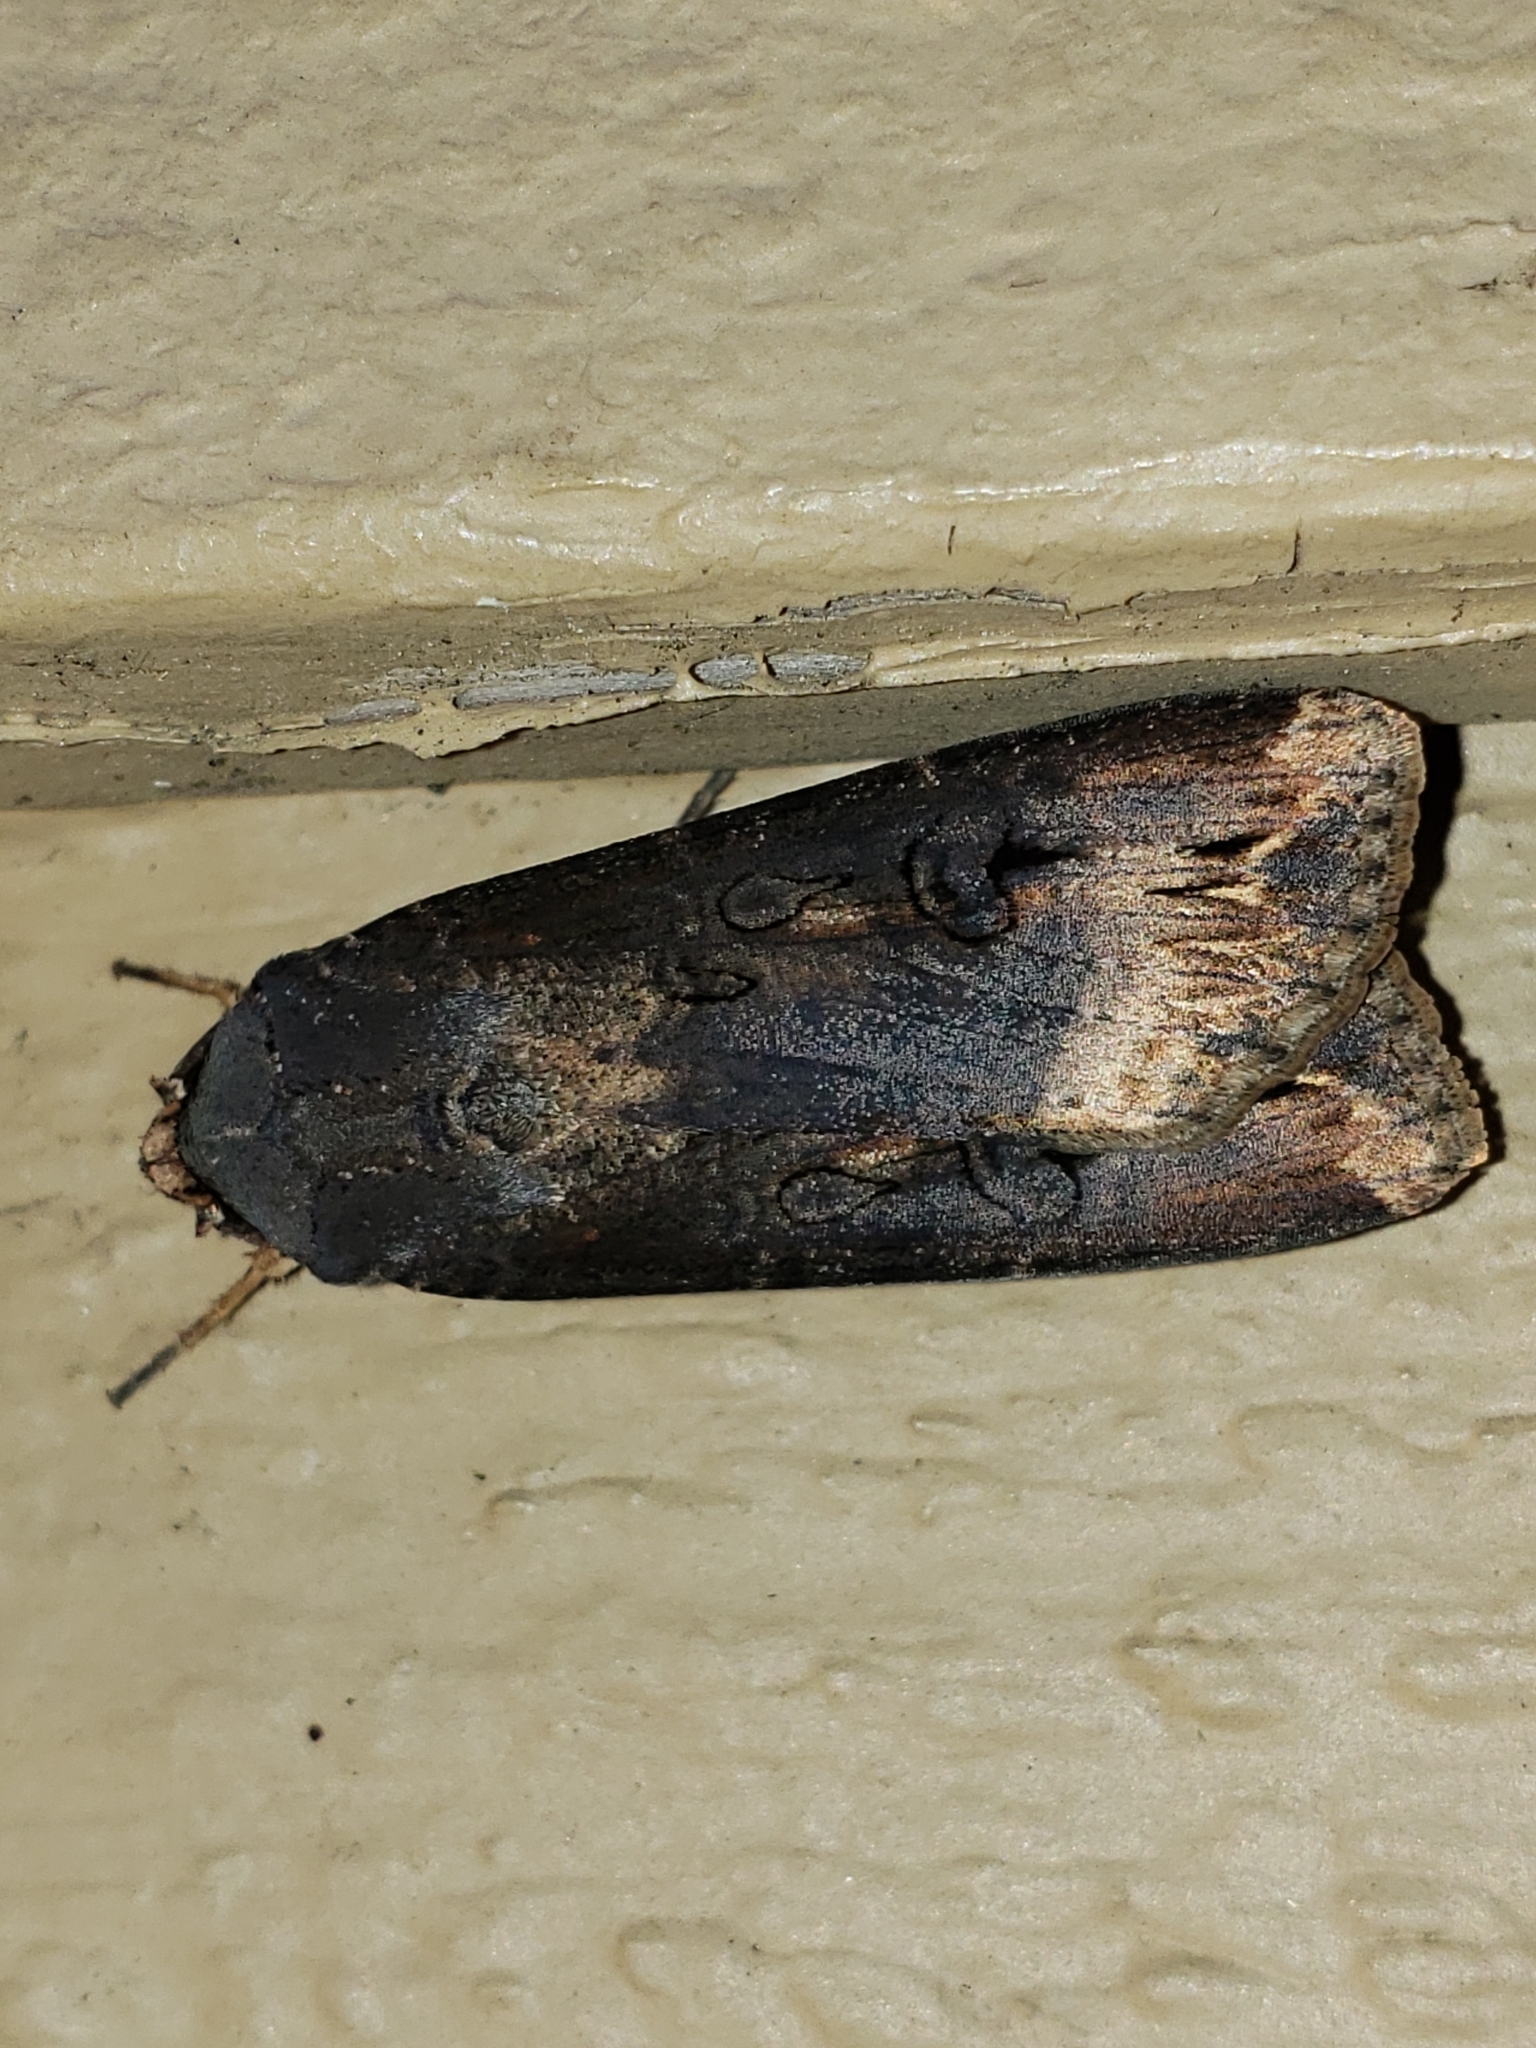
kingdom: Animalia
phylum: Arthropoda
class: Insecta
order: Lepidoptera
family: Noctuidae
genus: Agrotis
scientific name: Agrotis ipsilon
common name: Dark sword-grass
